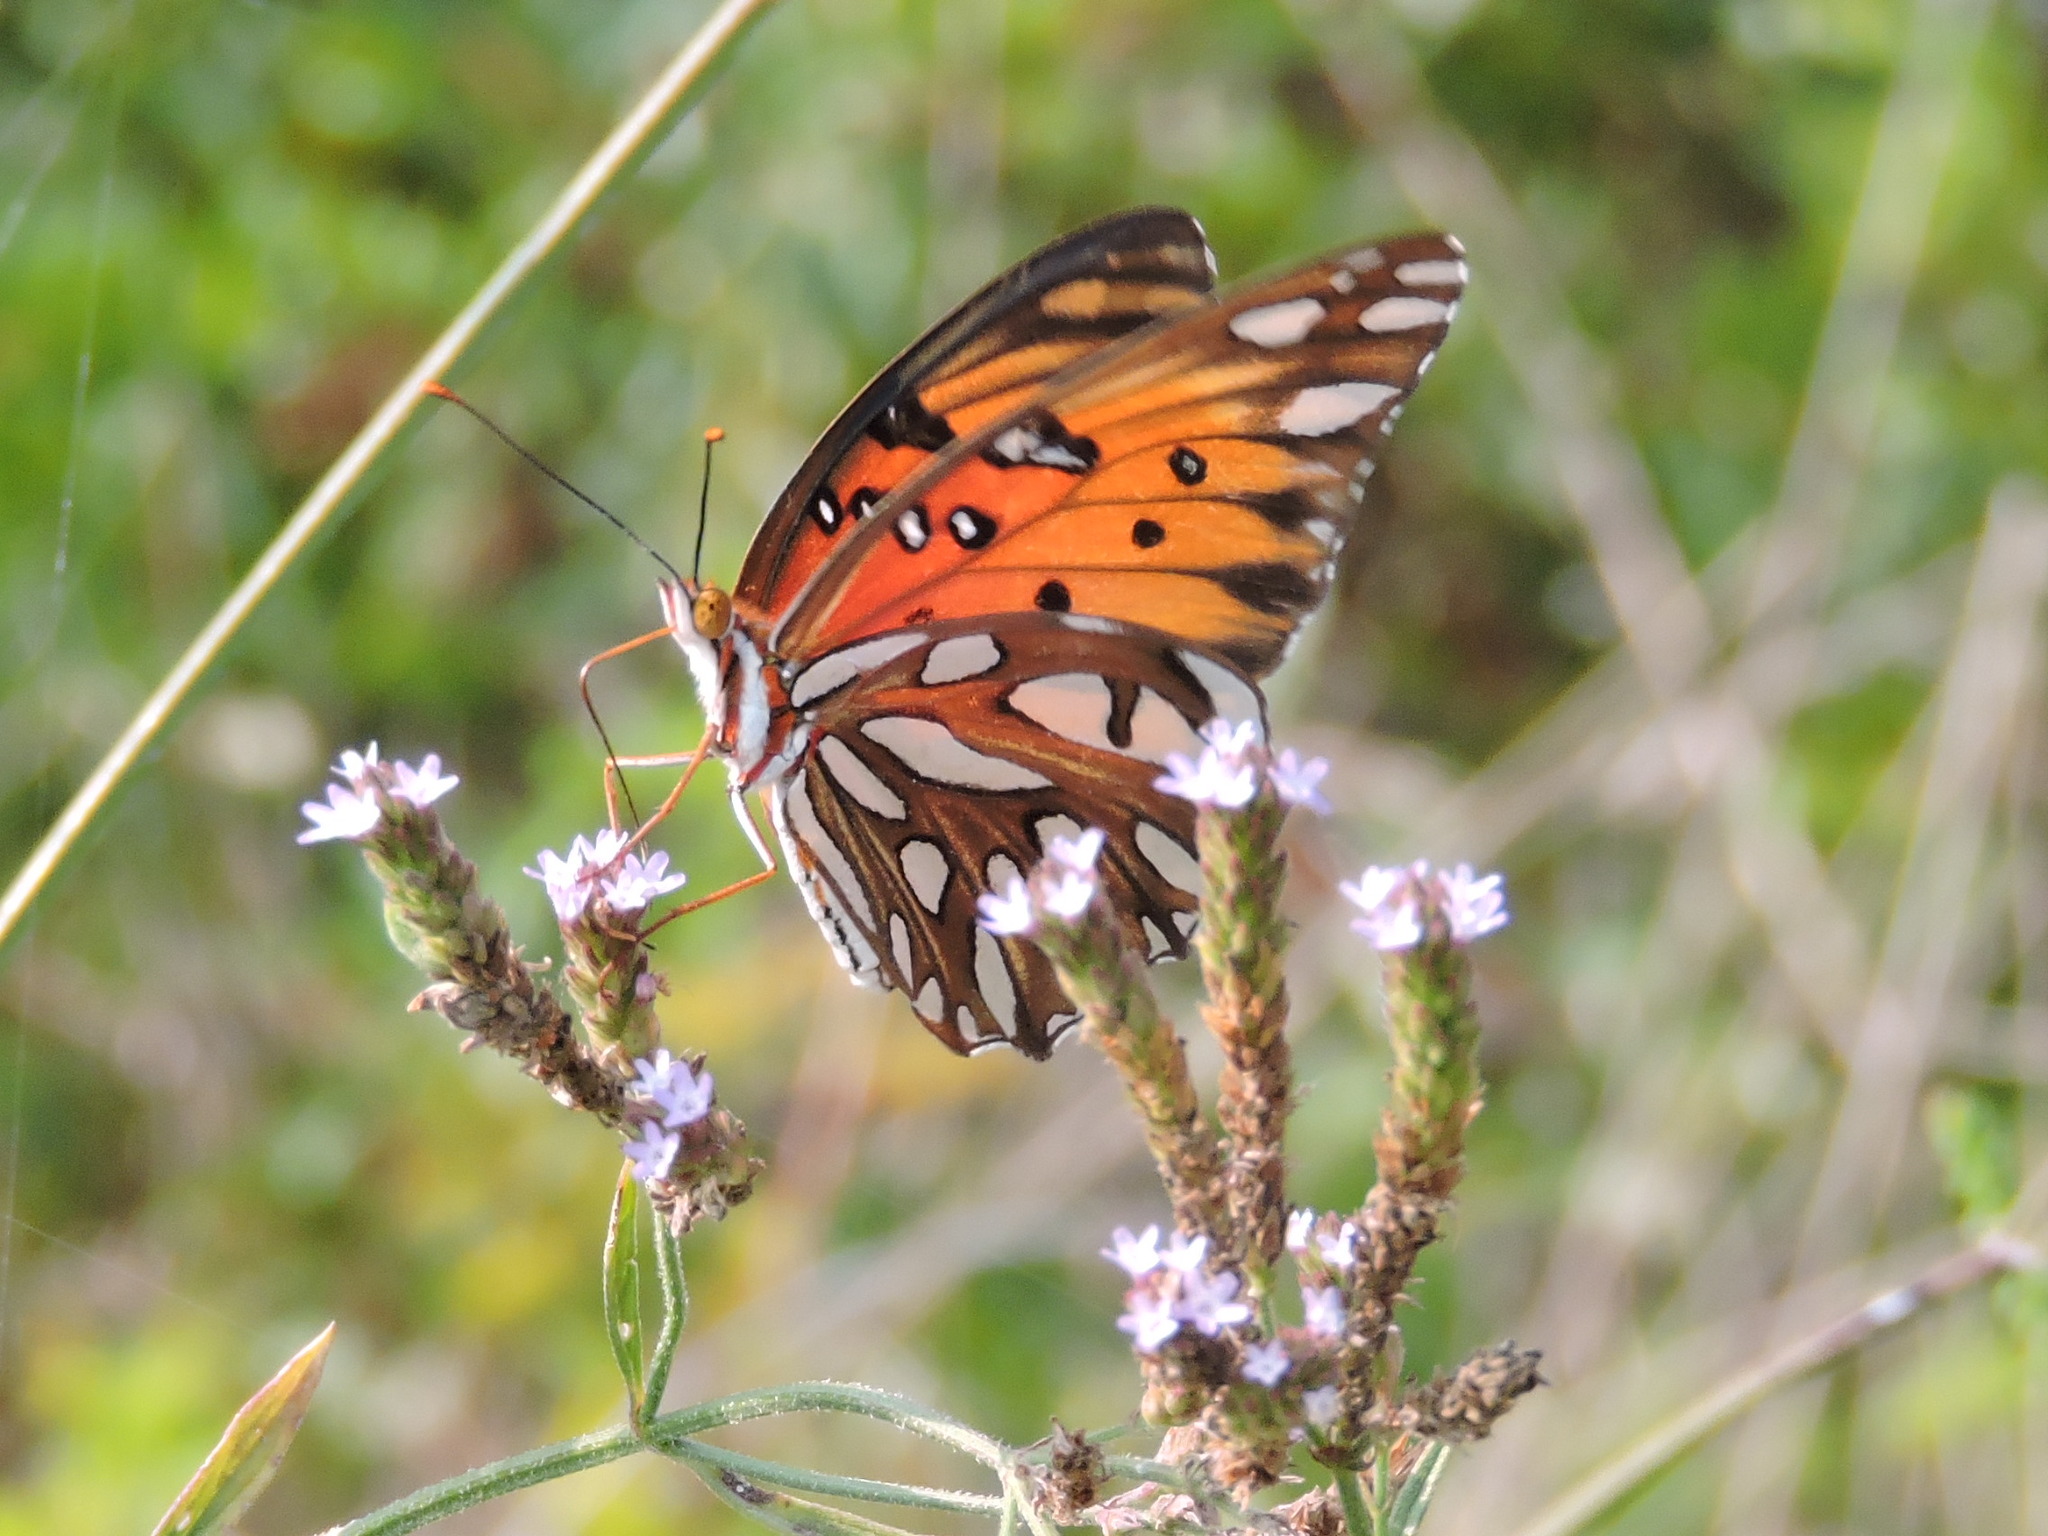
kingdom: Animalia
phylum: Arthropoda
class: Insecta
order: Lepidoptera
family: Nymphalidae
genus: Dione
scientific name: Dione vanillae
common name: Gulf fritillary
